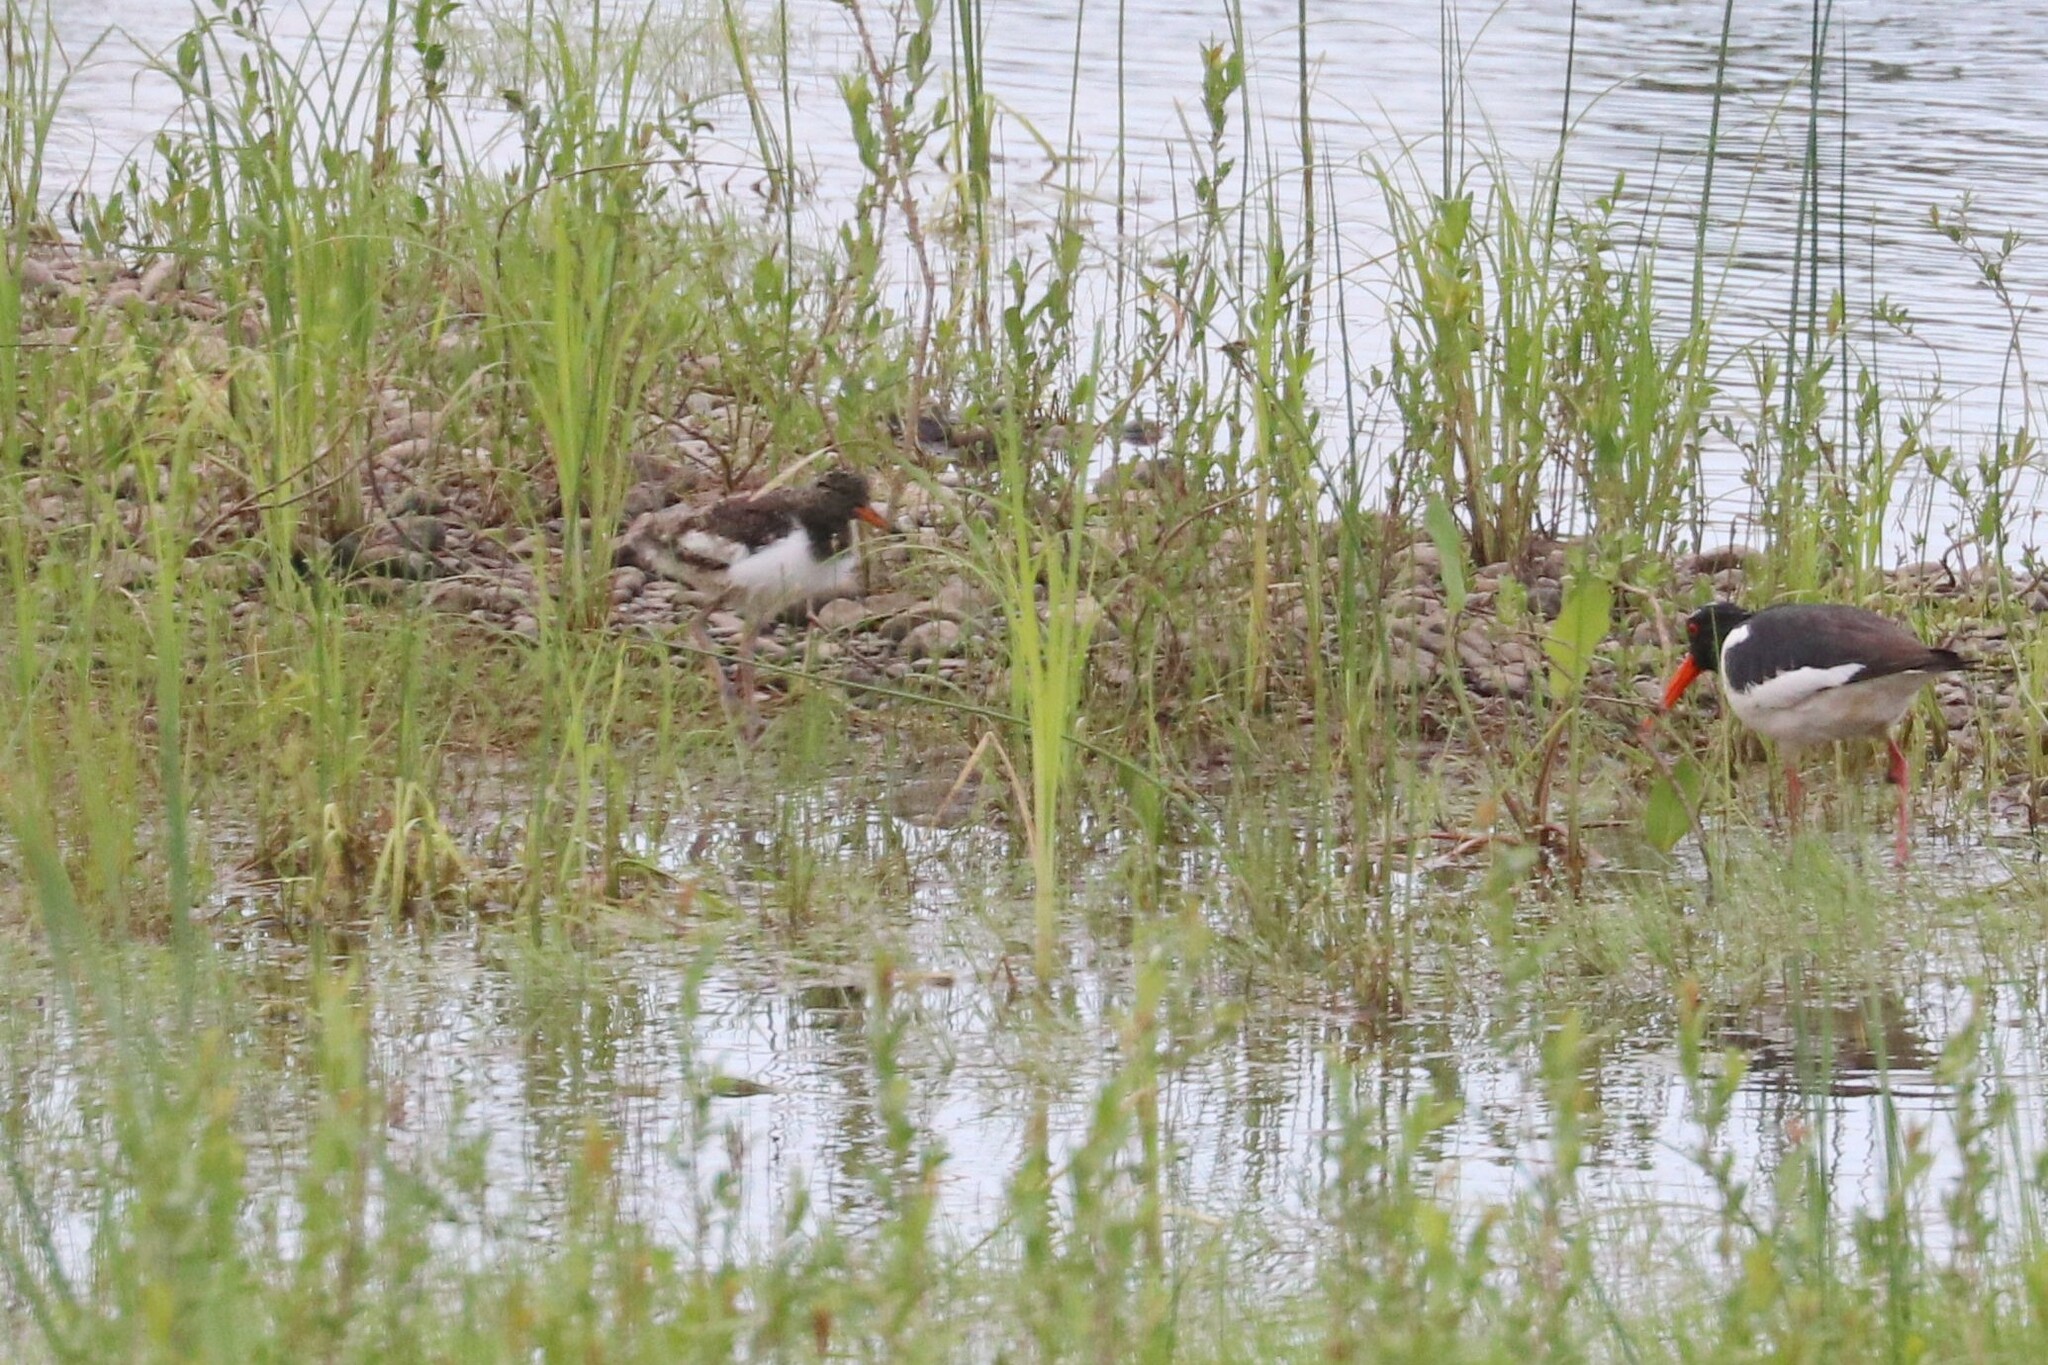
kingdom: Animalia
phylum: Chordata
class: Aves
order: Charadriiformes
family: Haematopodidae
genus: Haematopus
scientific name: Haematopus ostralegus
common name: Eurasian oystercatcher
